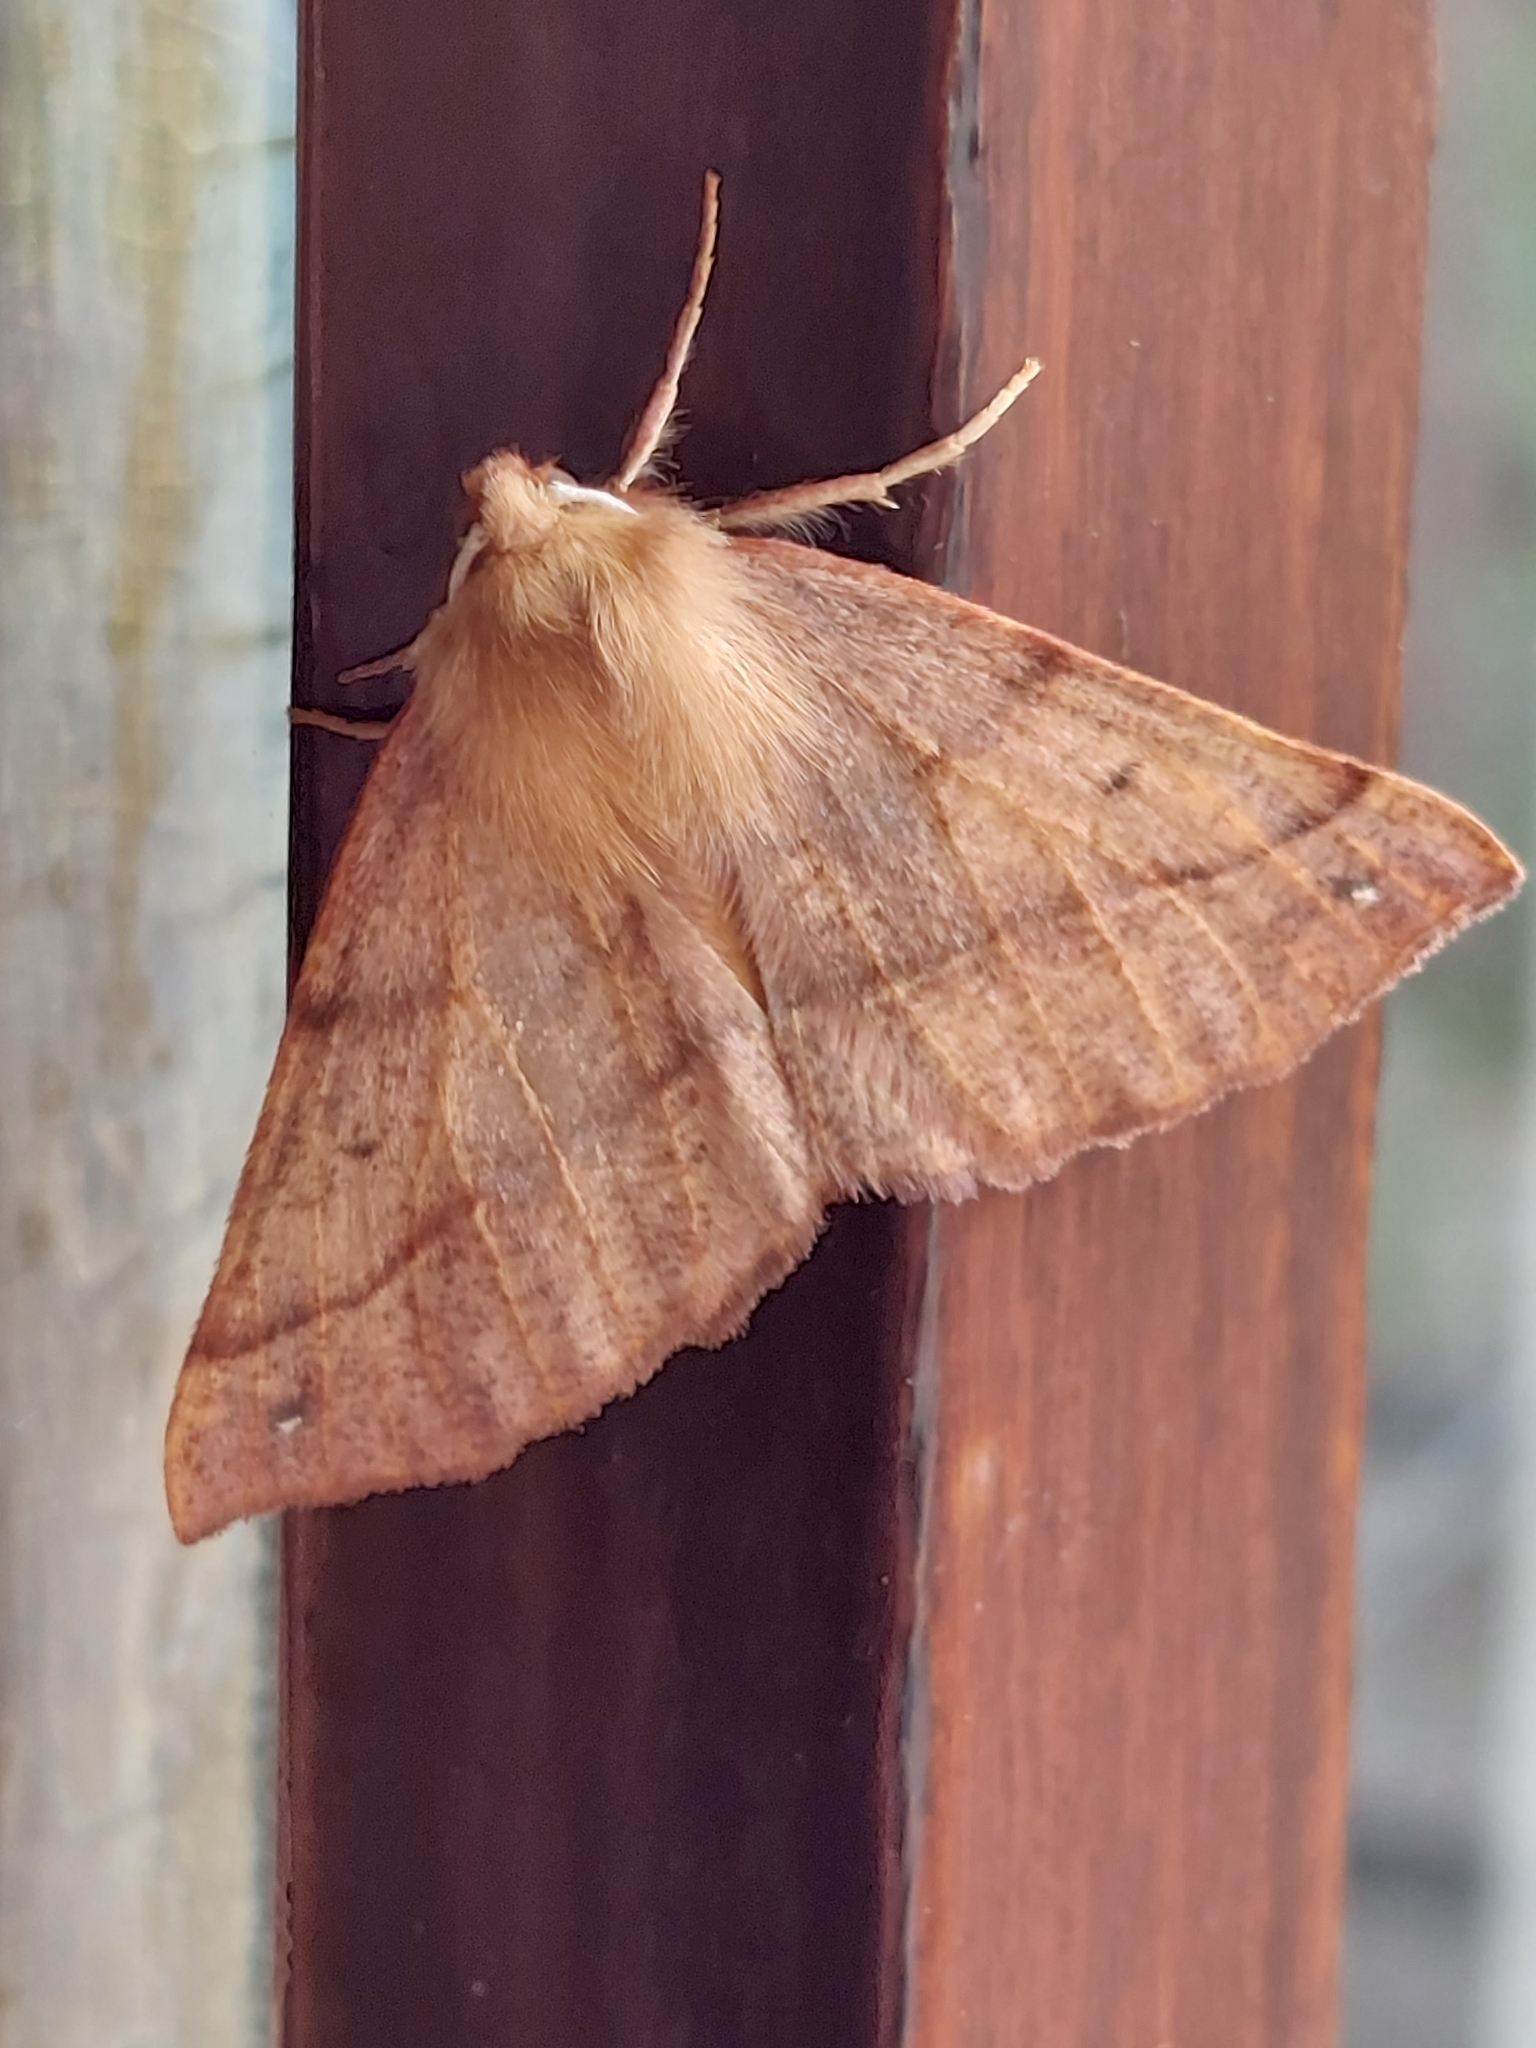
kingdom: Animalia
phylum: Arthropoda
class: Insecta
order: Lepidoptera
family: Geometridae
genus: Colotois
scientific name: Colotois pennaria
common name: Feathered thorn
